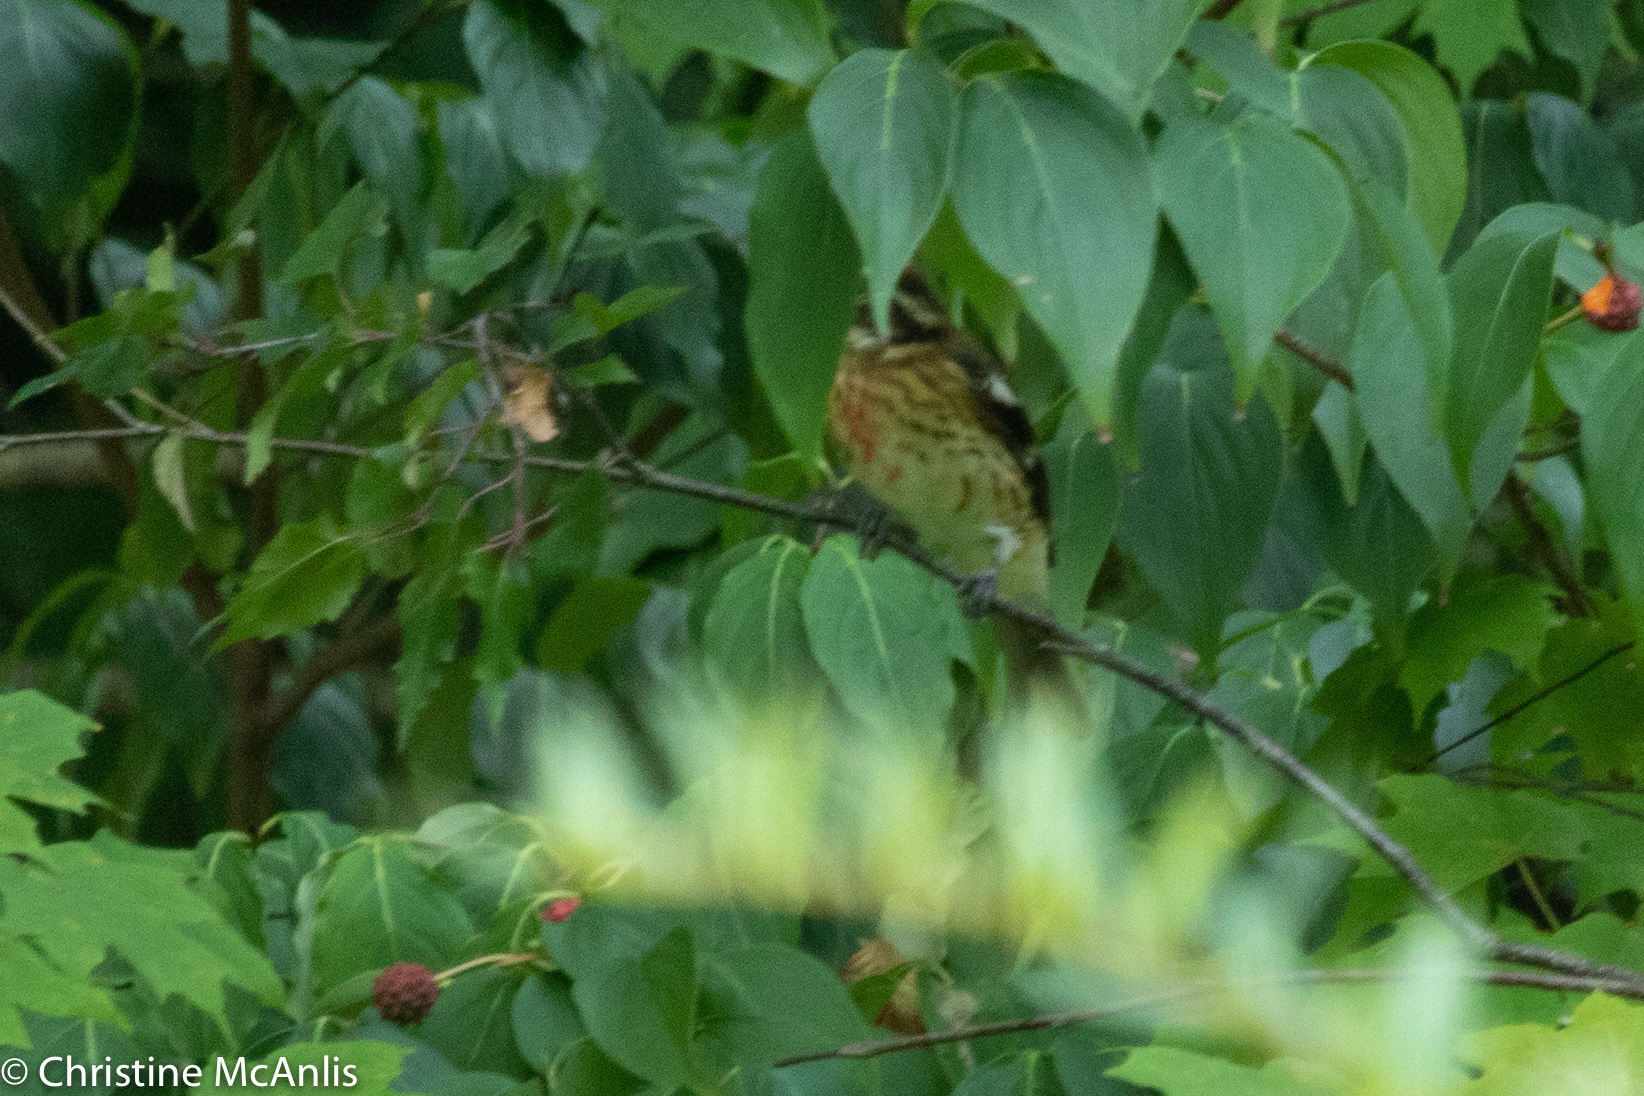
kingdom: Animalia
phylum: Chordata
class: Aves
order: Passeriformes
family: Cardinalidae
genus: Pheucticus
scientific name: Pheucticus ludovicianus
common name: Rose-breasted grosbeak
